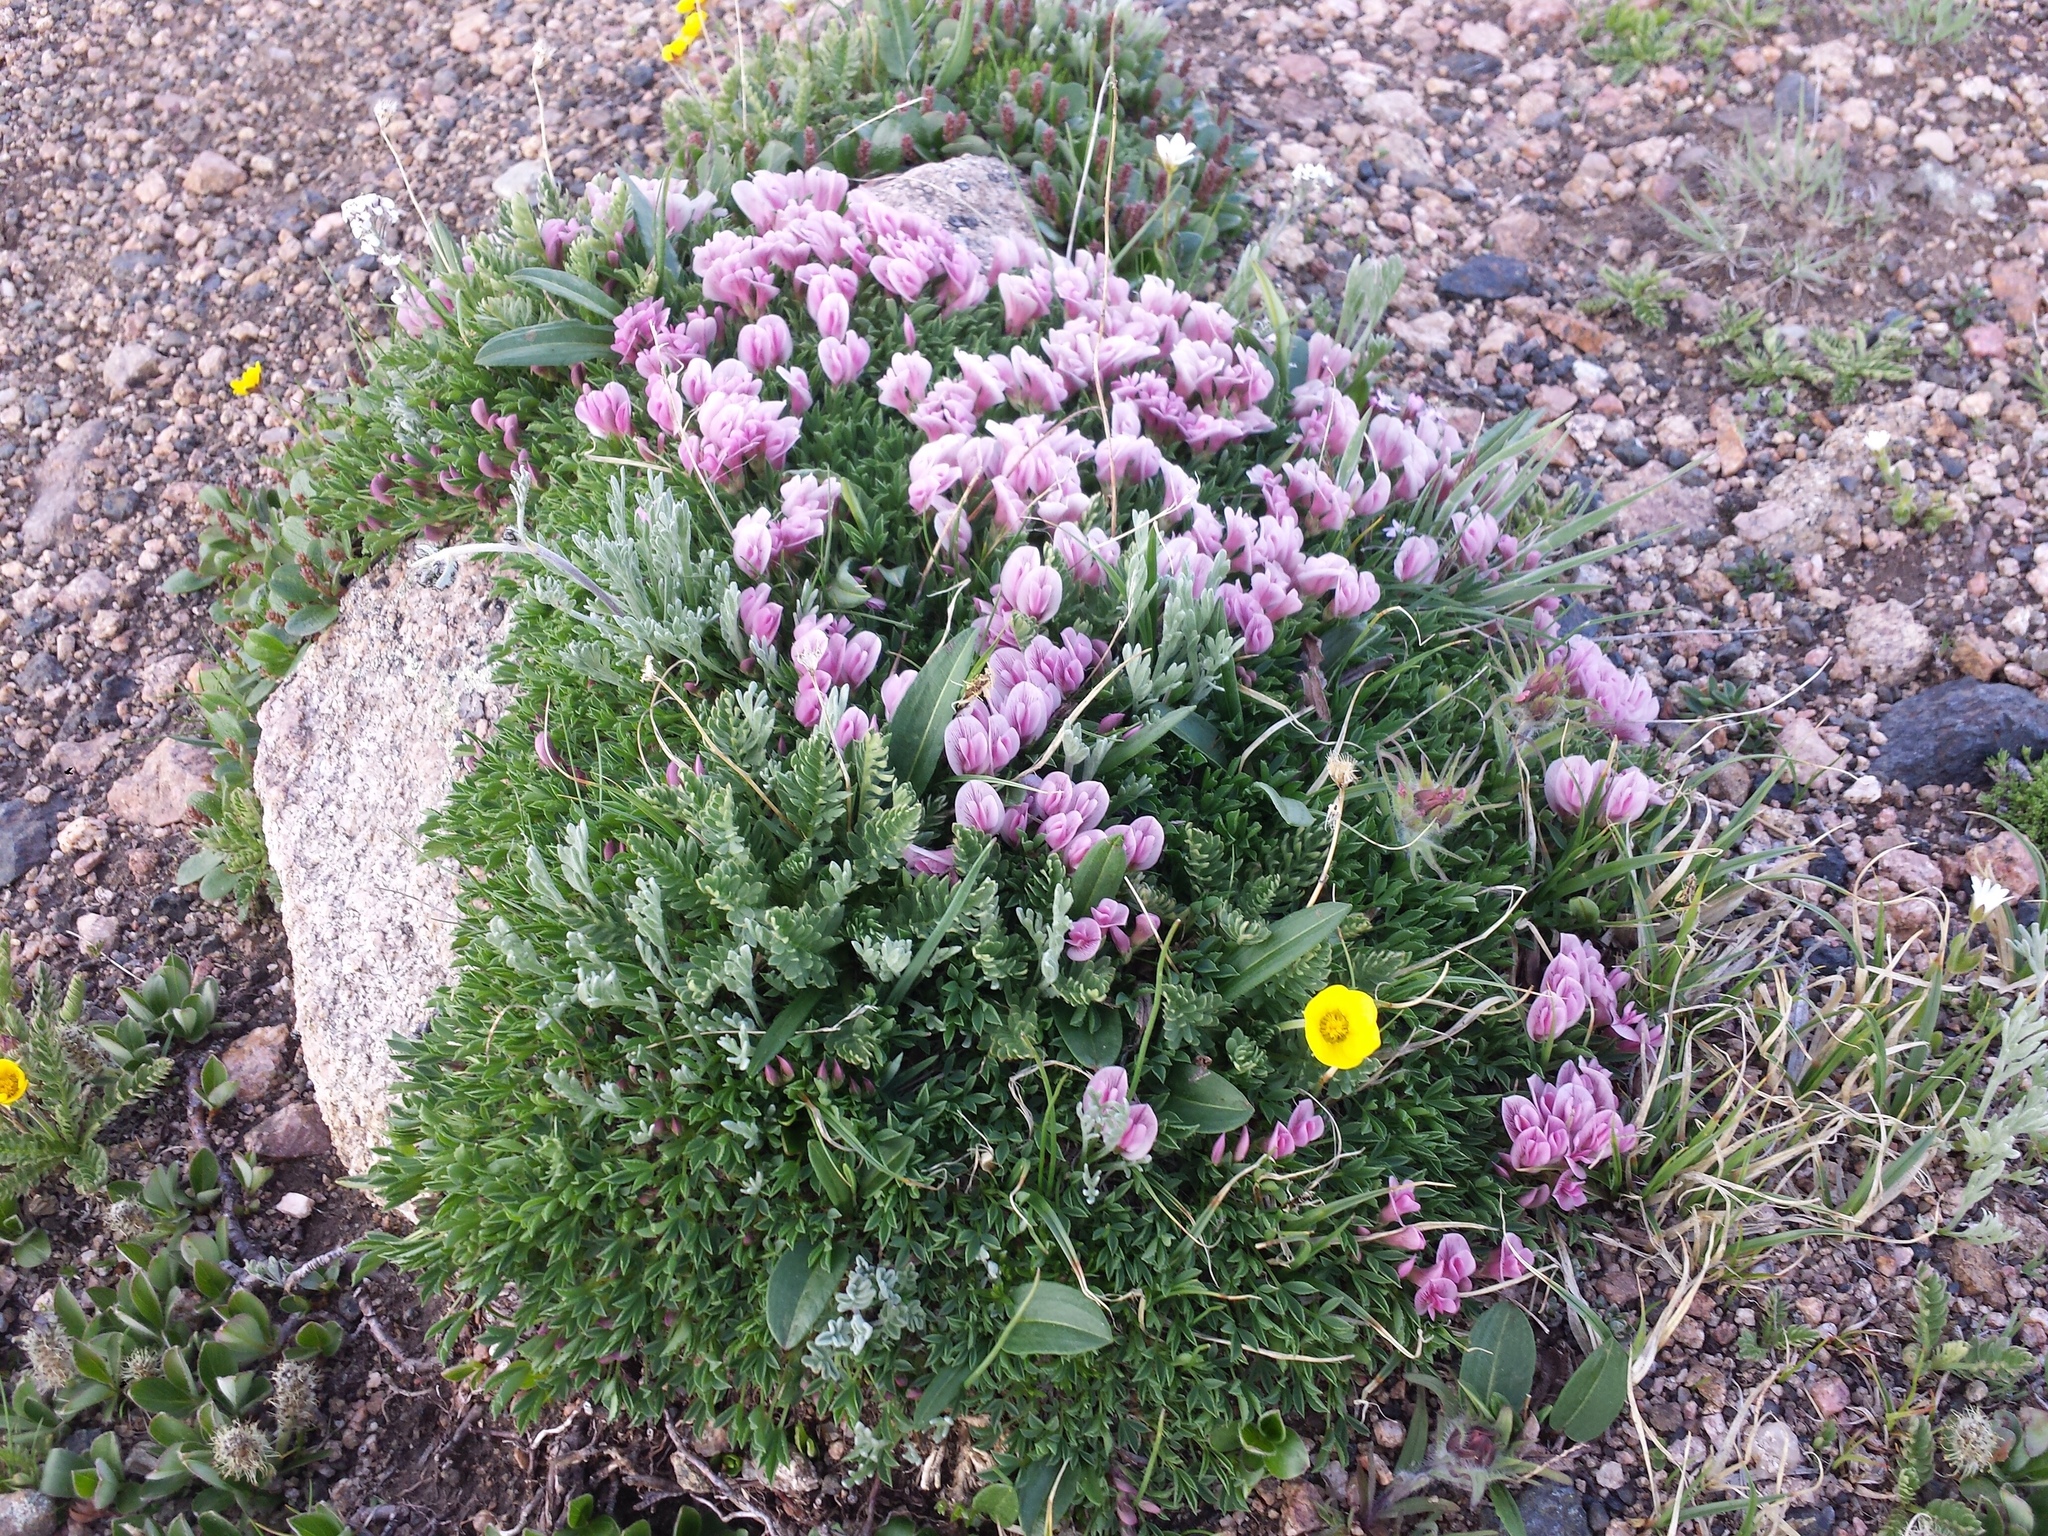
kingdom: Plantae
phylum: Tracheophyta
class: Magnoliopsida
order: Fabales
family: Fabaceae
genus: Trifolium
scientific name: Trifolium nanum
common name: Tundra clover
